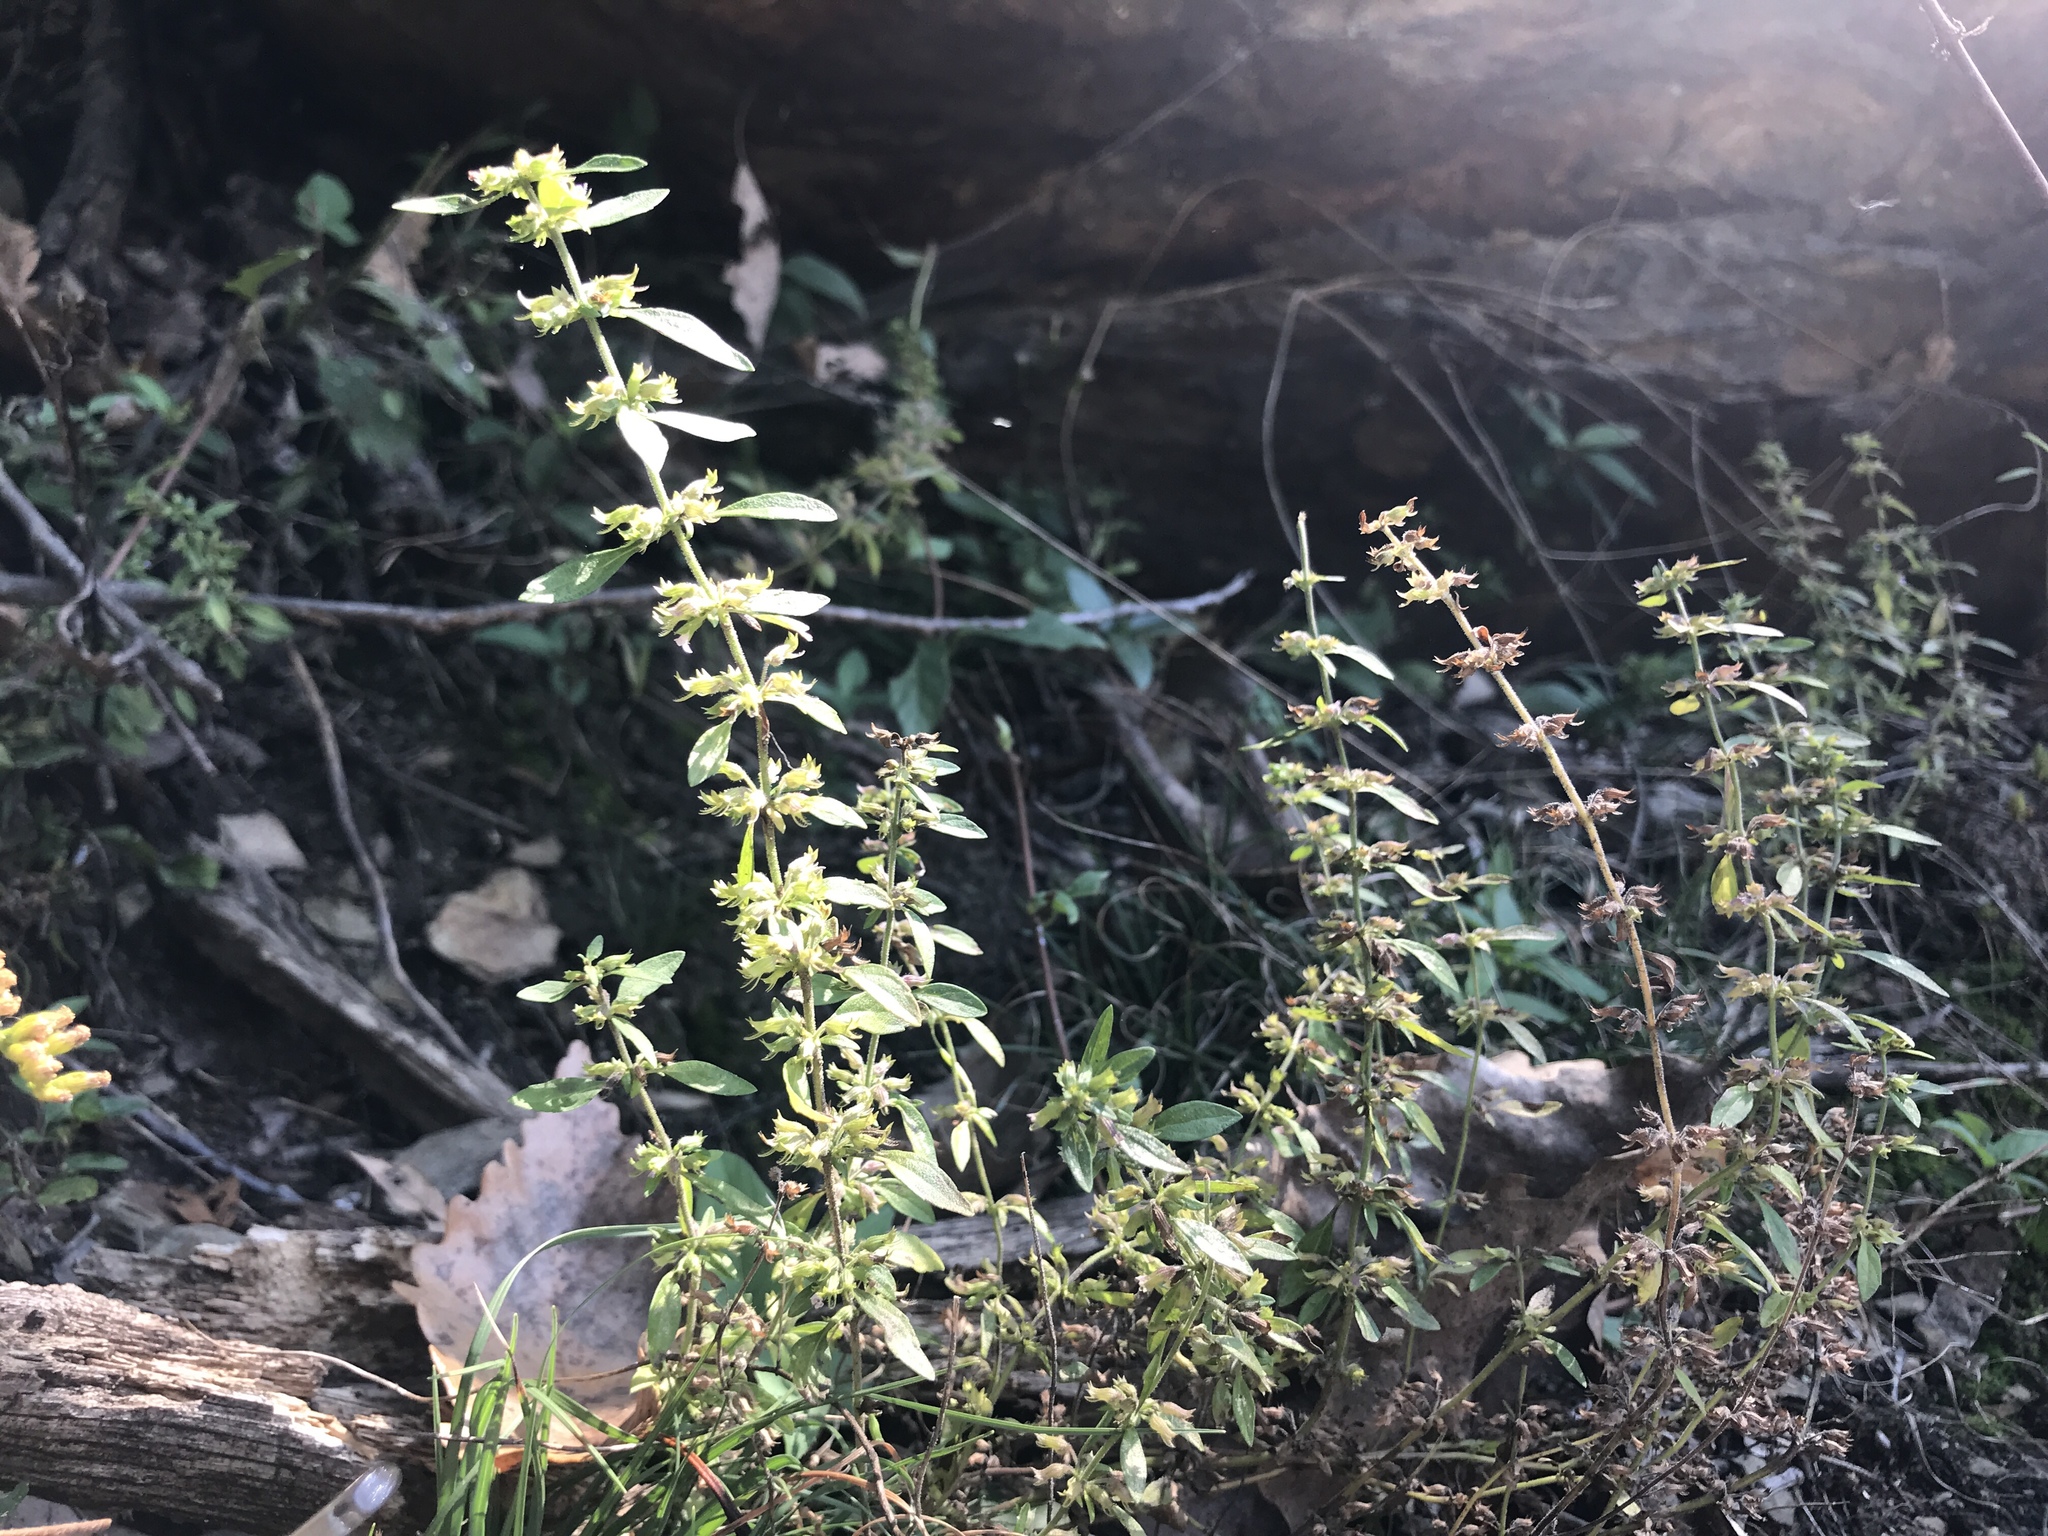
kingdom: Plantae
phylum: Tracheophyta
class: Magnoliopsida
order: Lamiales
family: Lamiaceae
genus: Hedeoma
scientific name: Hedeoma pulegioides
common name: American false pennyroyal
